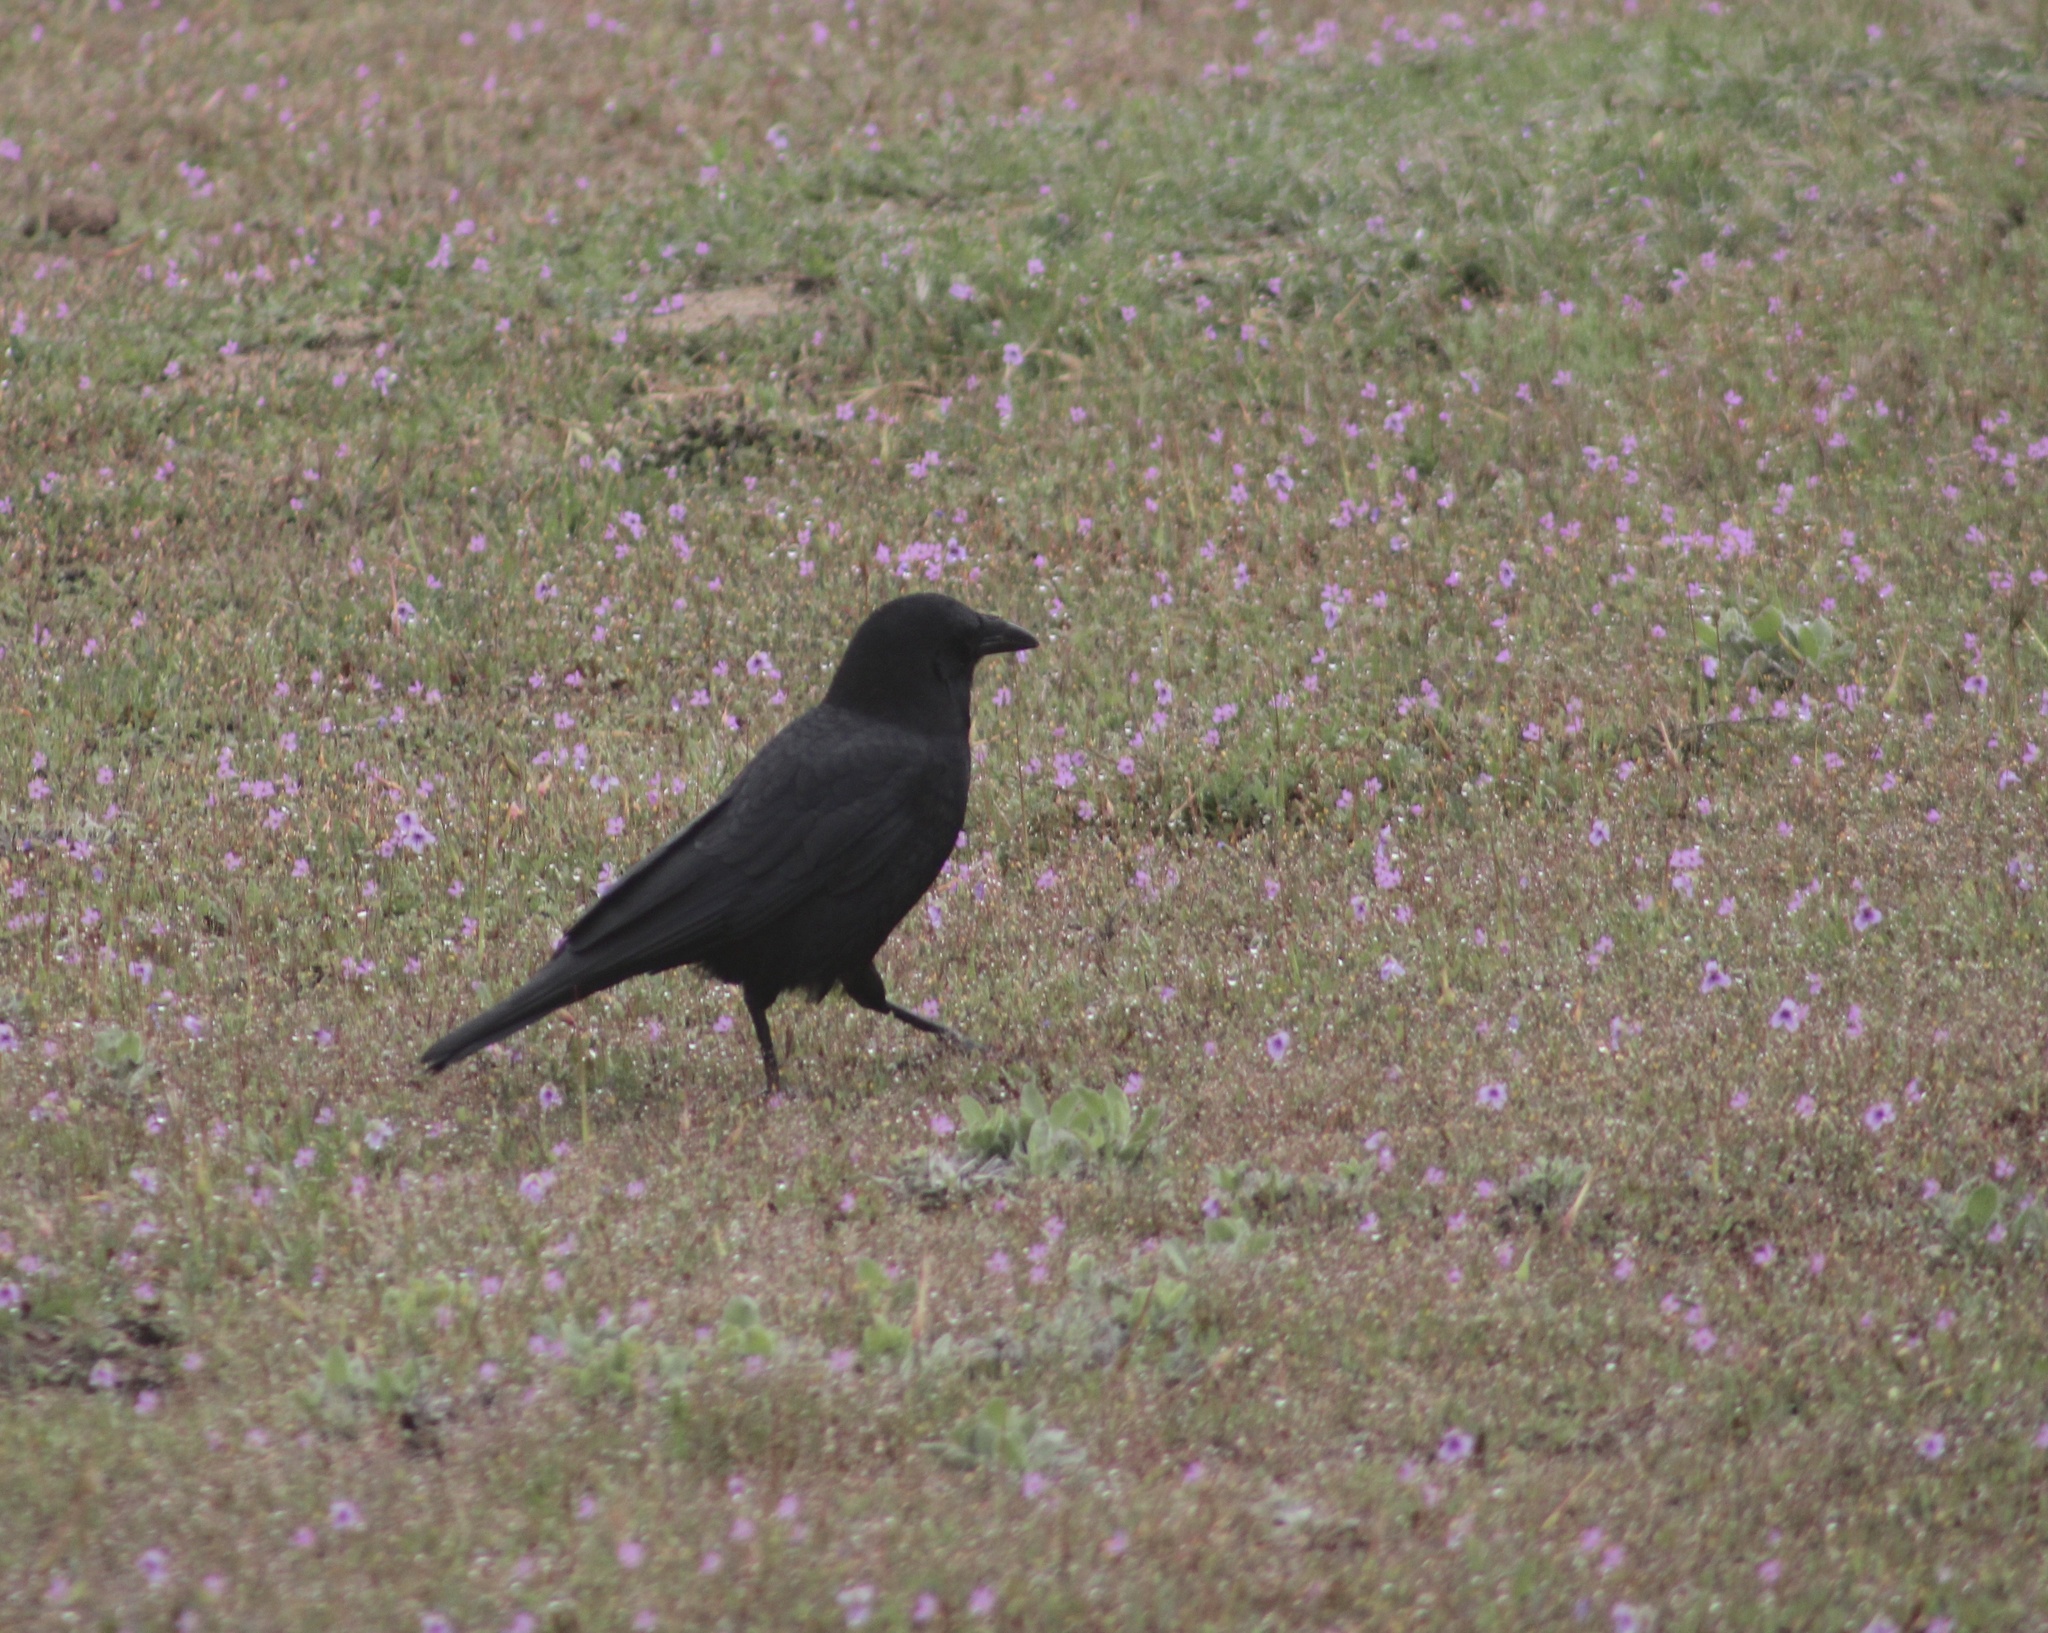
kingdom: Animalia
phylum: Chordata
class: Aves
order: Passeriformes
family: Corvidae
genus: Corvus
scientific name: Corvus brachyrhynchos
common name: American crow
